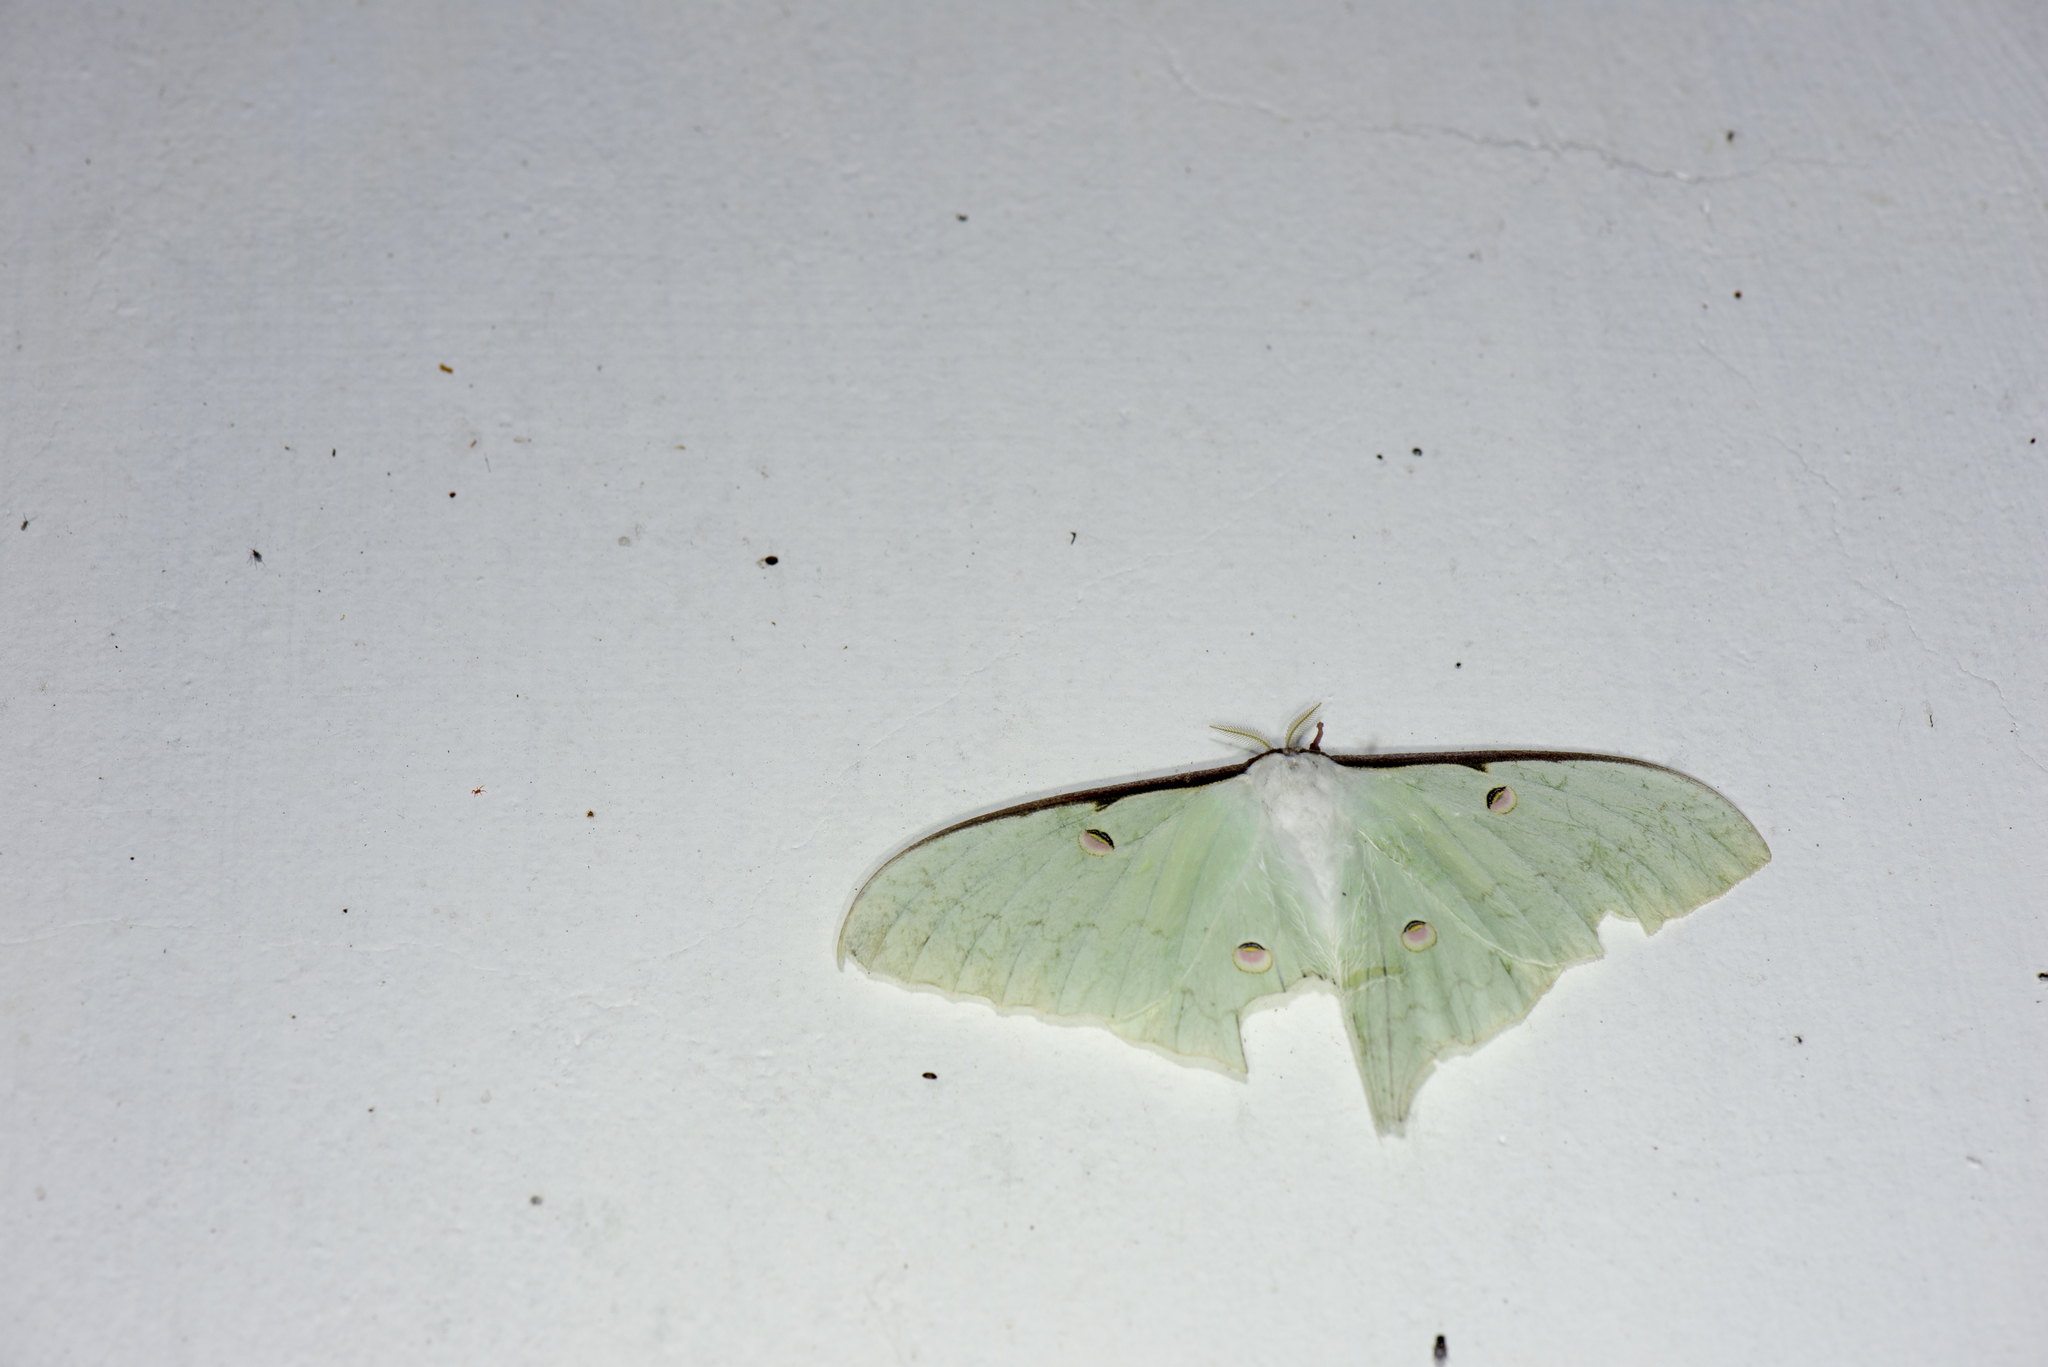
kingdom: Animalia
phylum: Arthropoda
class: Insecta
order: Lepidoptera
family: Saturniidae
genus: Actias
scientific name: Actias sinensis
